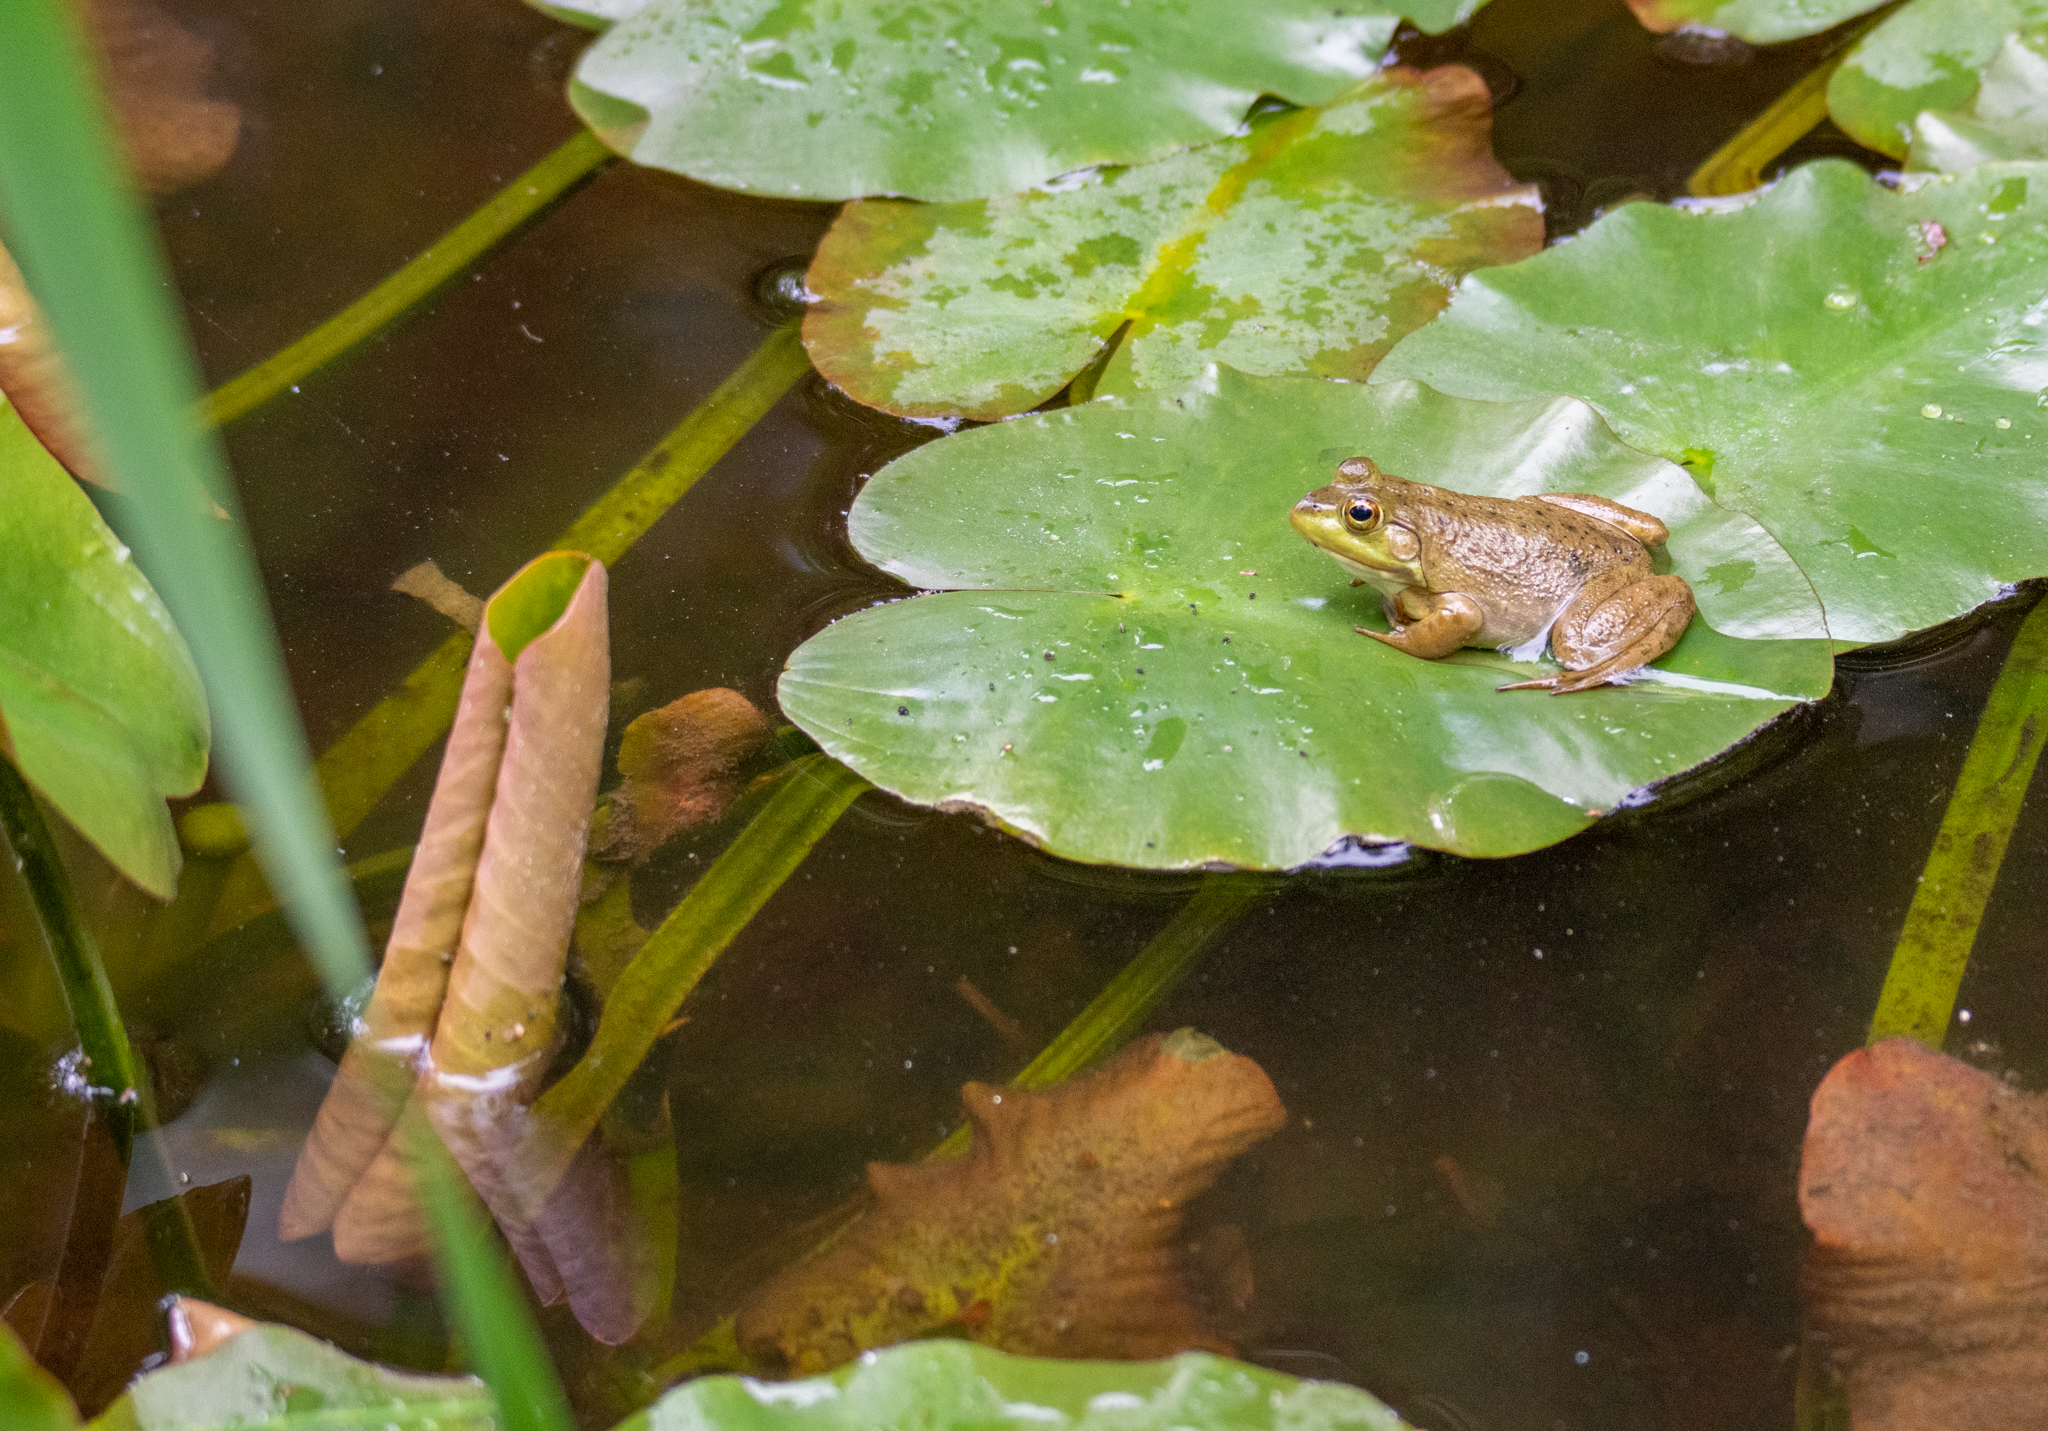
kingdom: Animalia
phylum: Chordata
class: Amphibia
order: Anura
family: Ranidae
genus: Lithobates
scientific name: Lithobates catesbeianus
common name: American bullfrog
